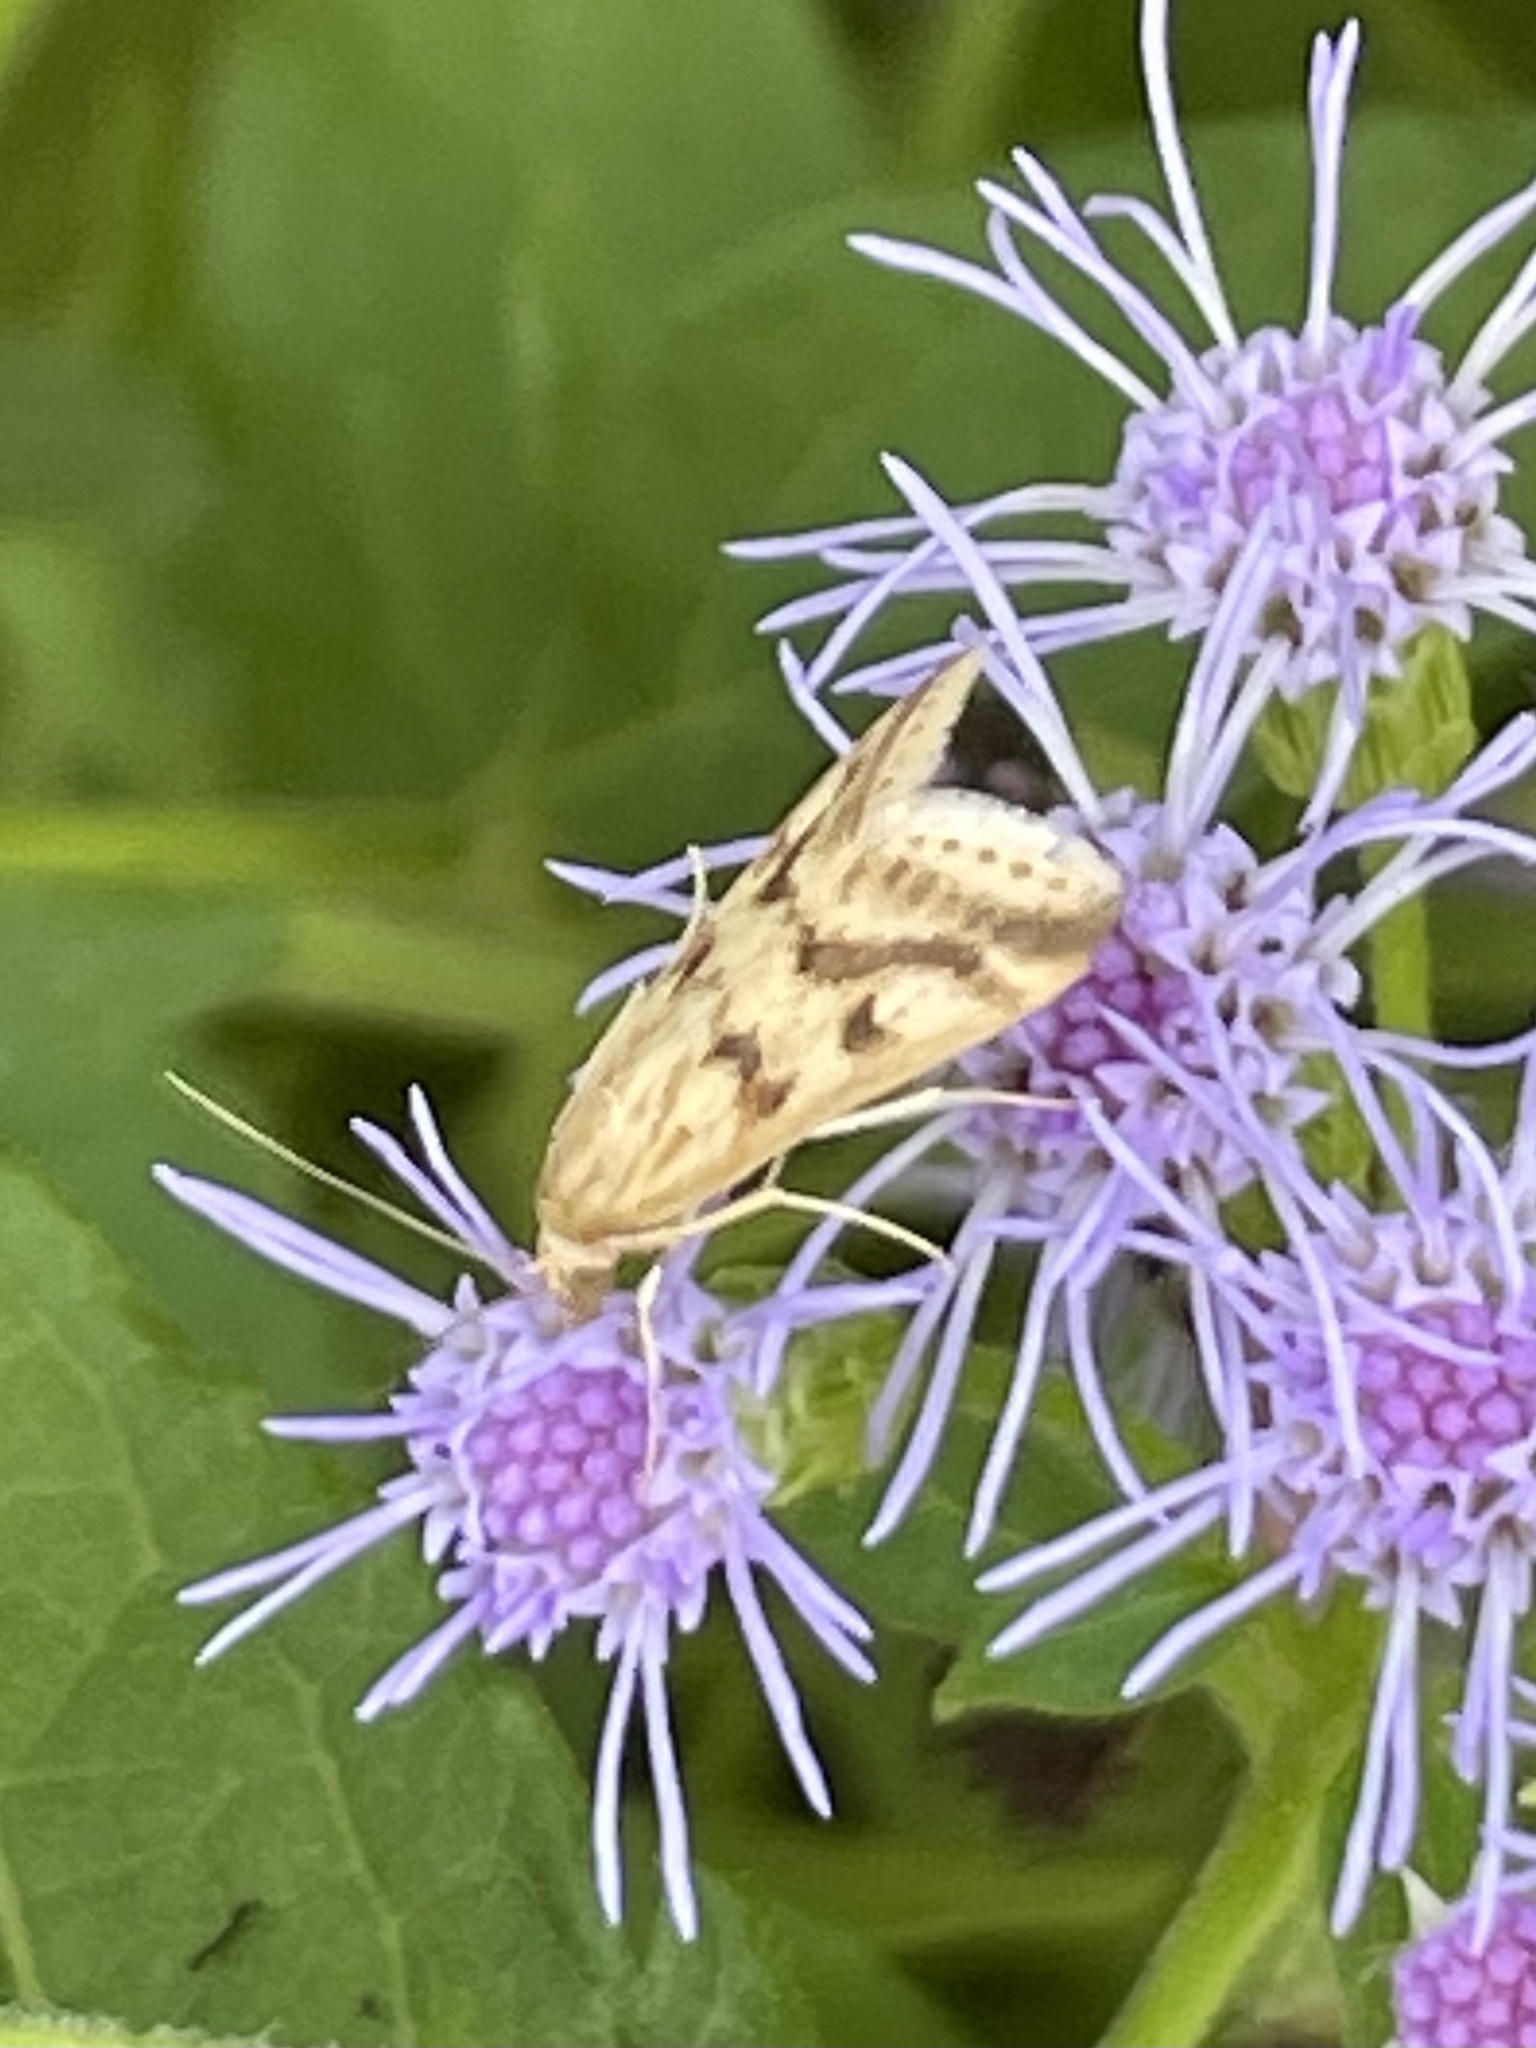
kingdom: Animalia
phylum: Arthropoda
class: Insecta
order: Lepidoptera
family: Crambidae
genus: Achyra
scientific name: Achyra bifidalis
